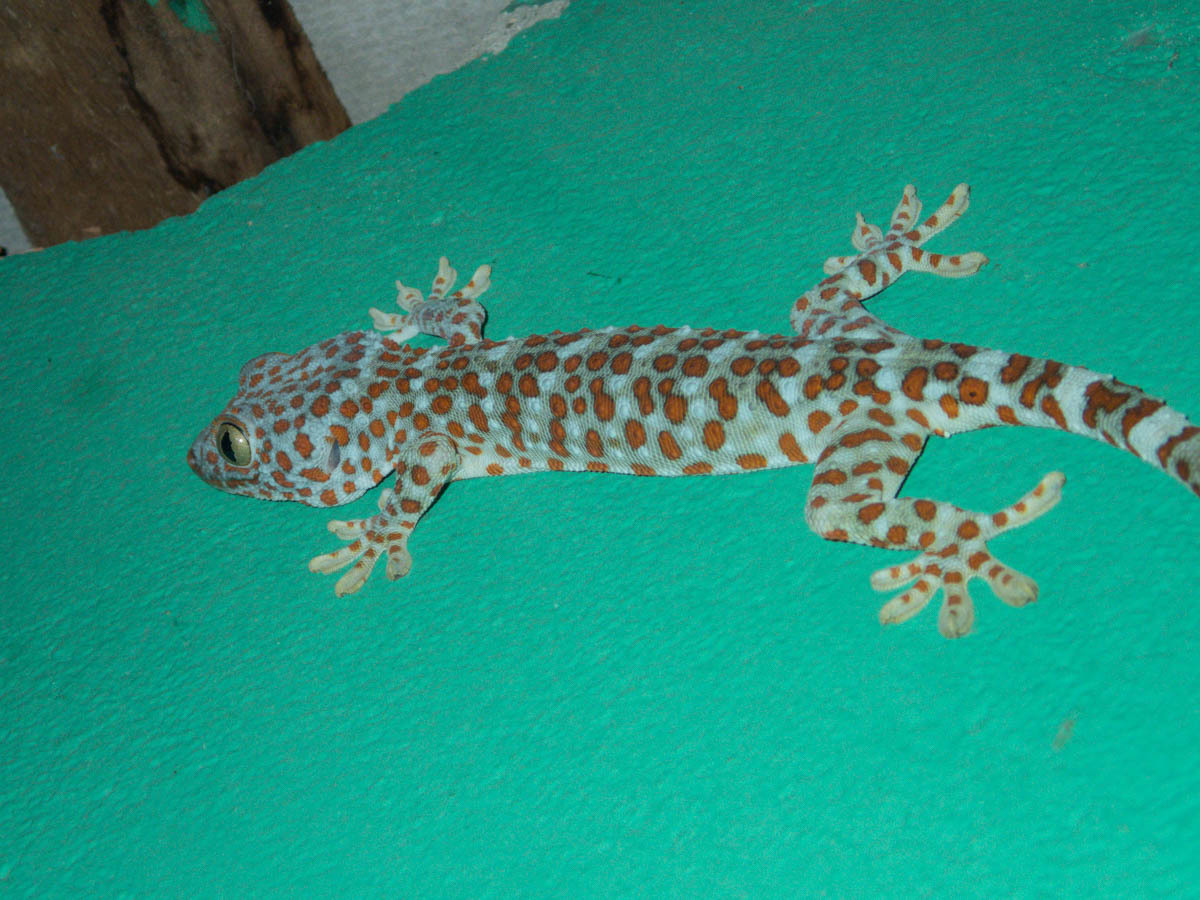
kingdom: Animalia
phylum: Chordata
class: Squamata
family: Gekkonidae
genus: Gekko
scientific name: Gekko gecko
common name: Tokay gecko
